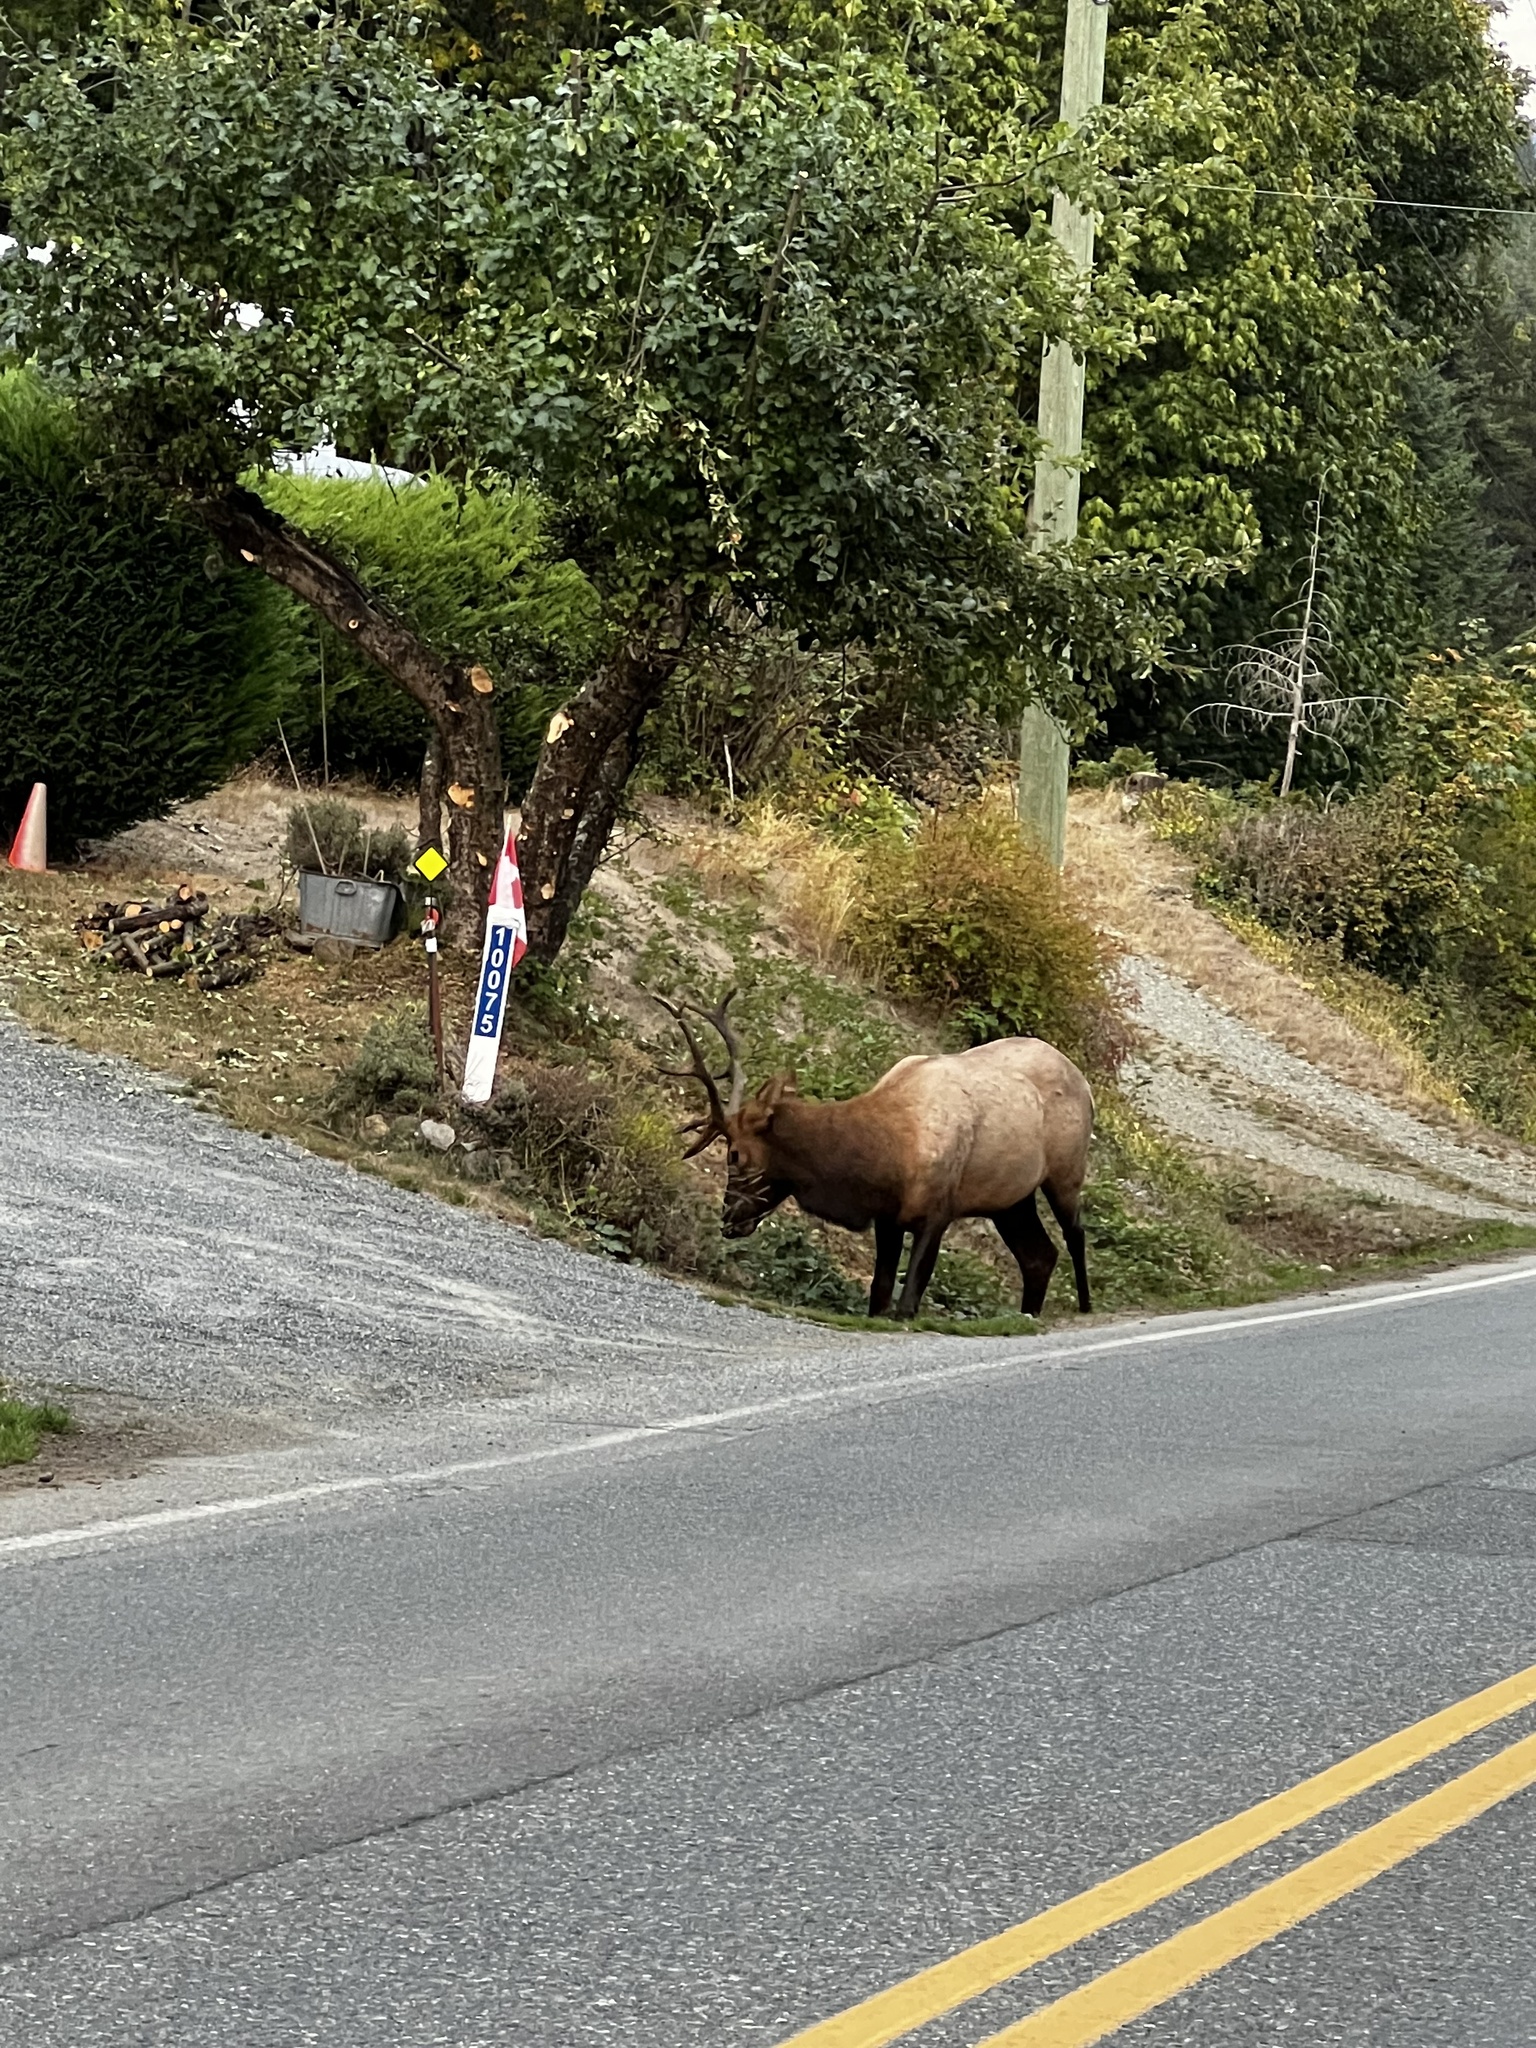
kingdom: Animalia
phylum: Chordata
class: Mammalia
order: Artiodactyla
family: Cervidae
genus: Cervus
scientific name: Cervus elaphus
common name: Red deer
